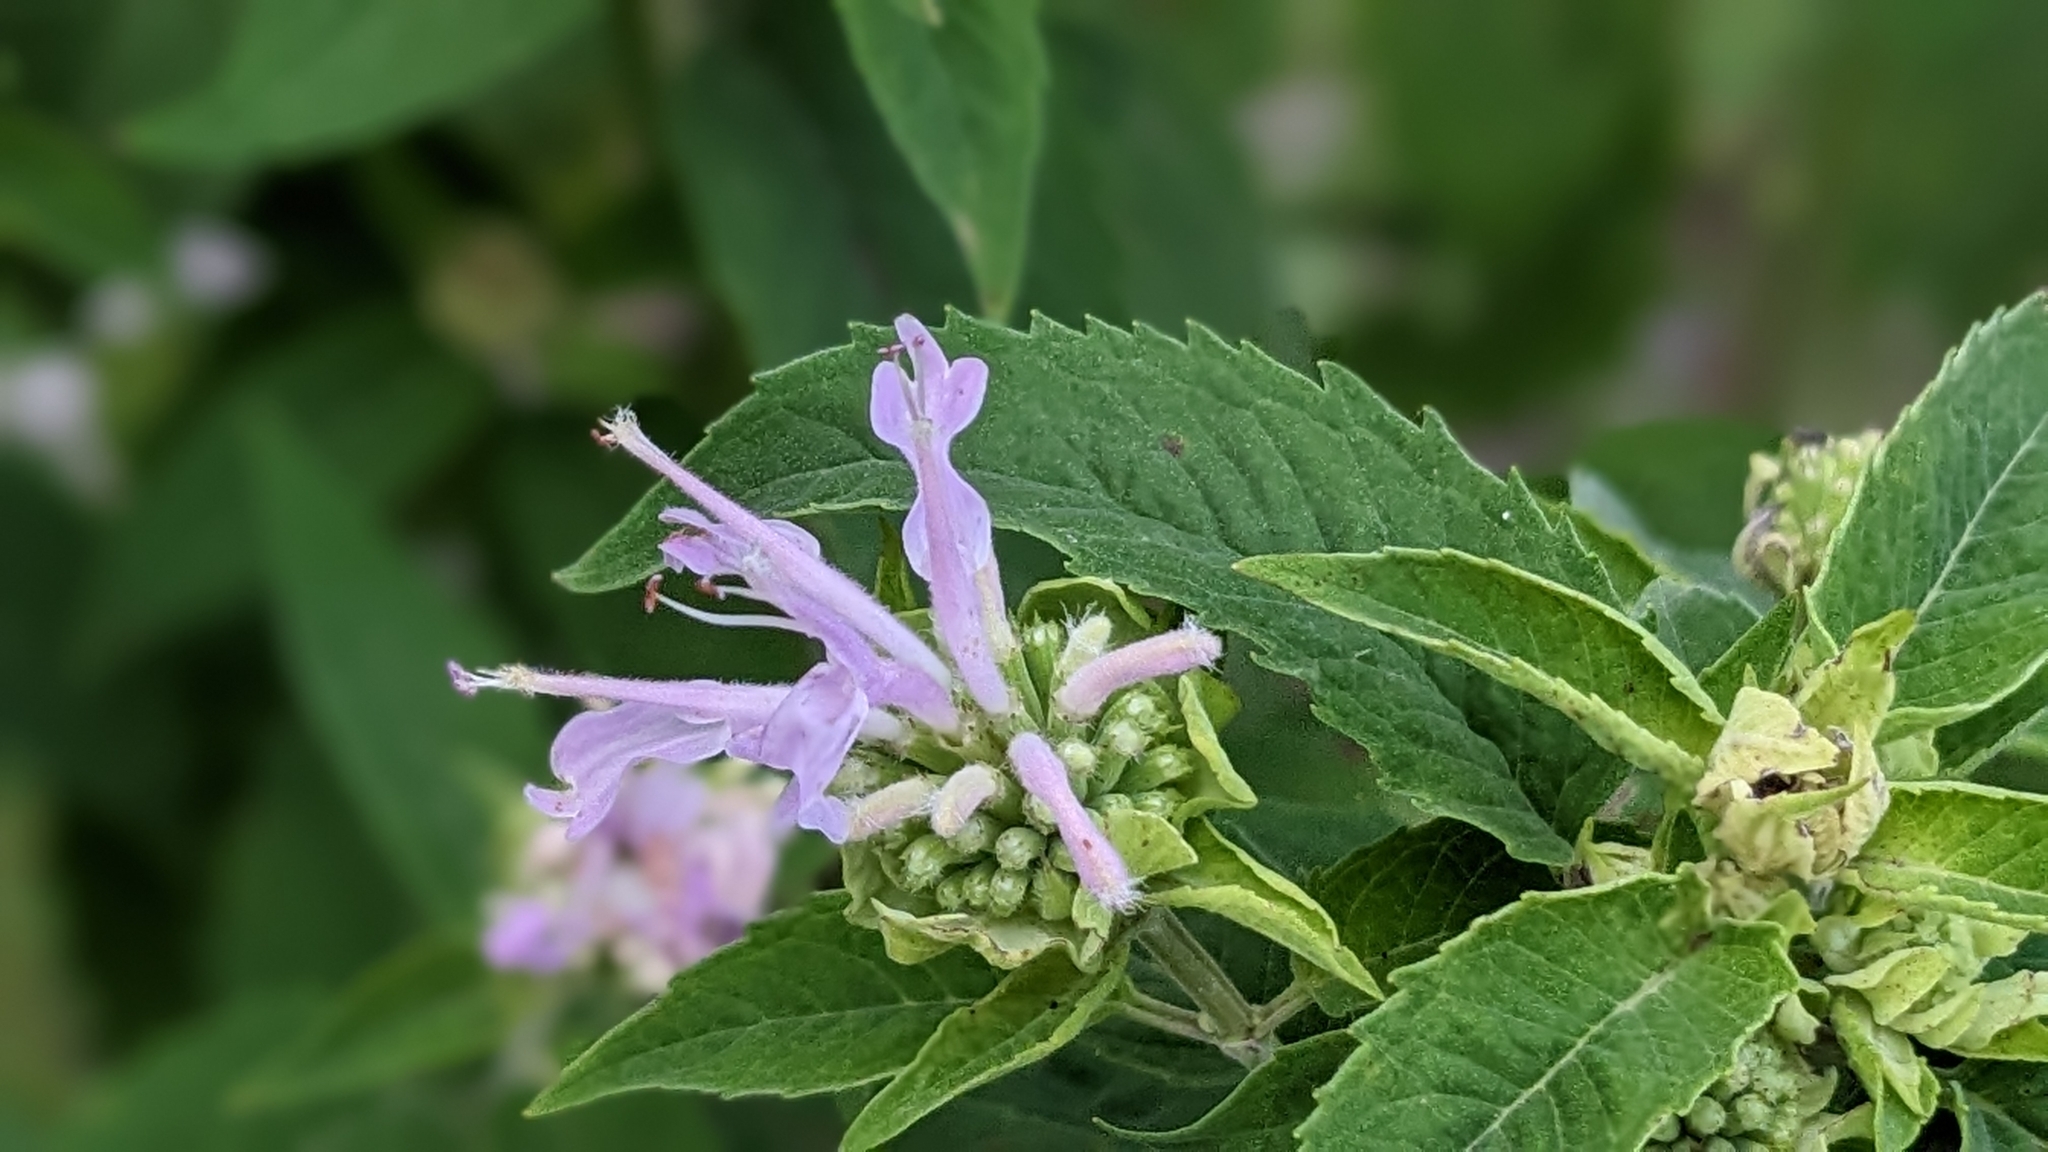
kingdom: Plantae
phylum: Tracheophyta
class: Magnoliopsida
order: Lamiales
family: Lamiaceae
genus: Monarda
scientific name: Monarda fistulosa
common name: Purple beebalm
